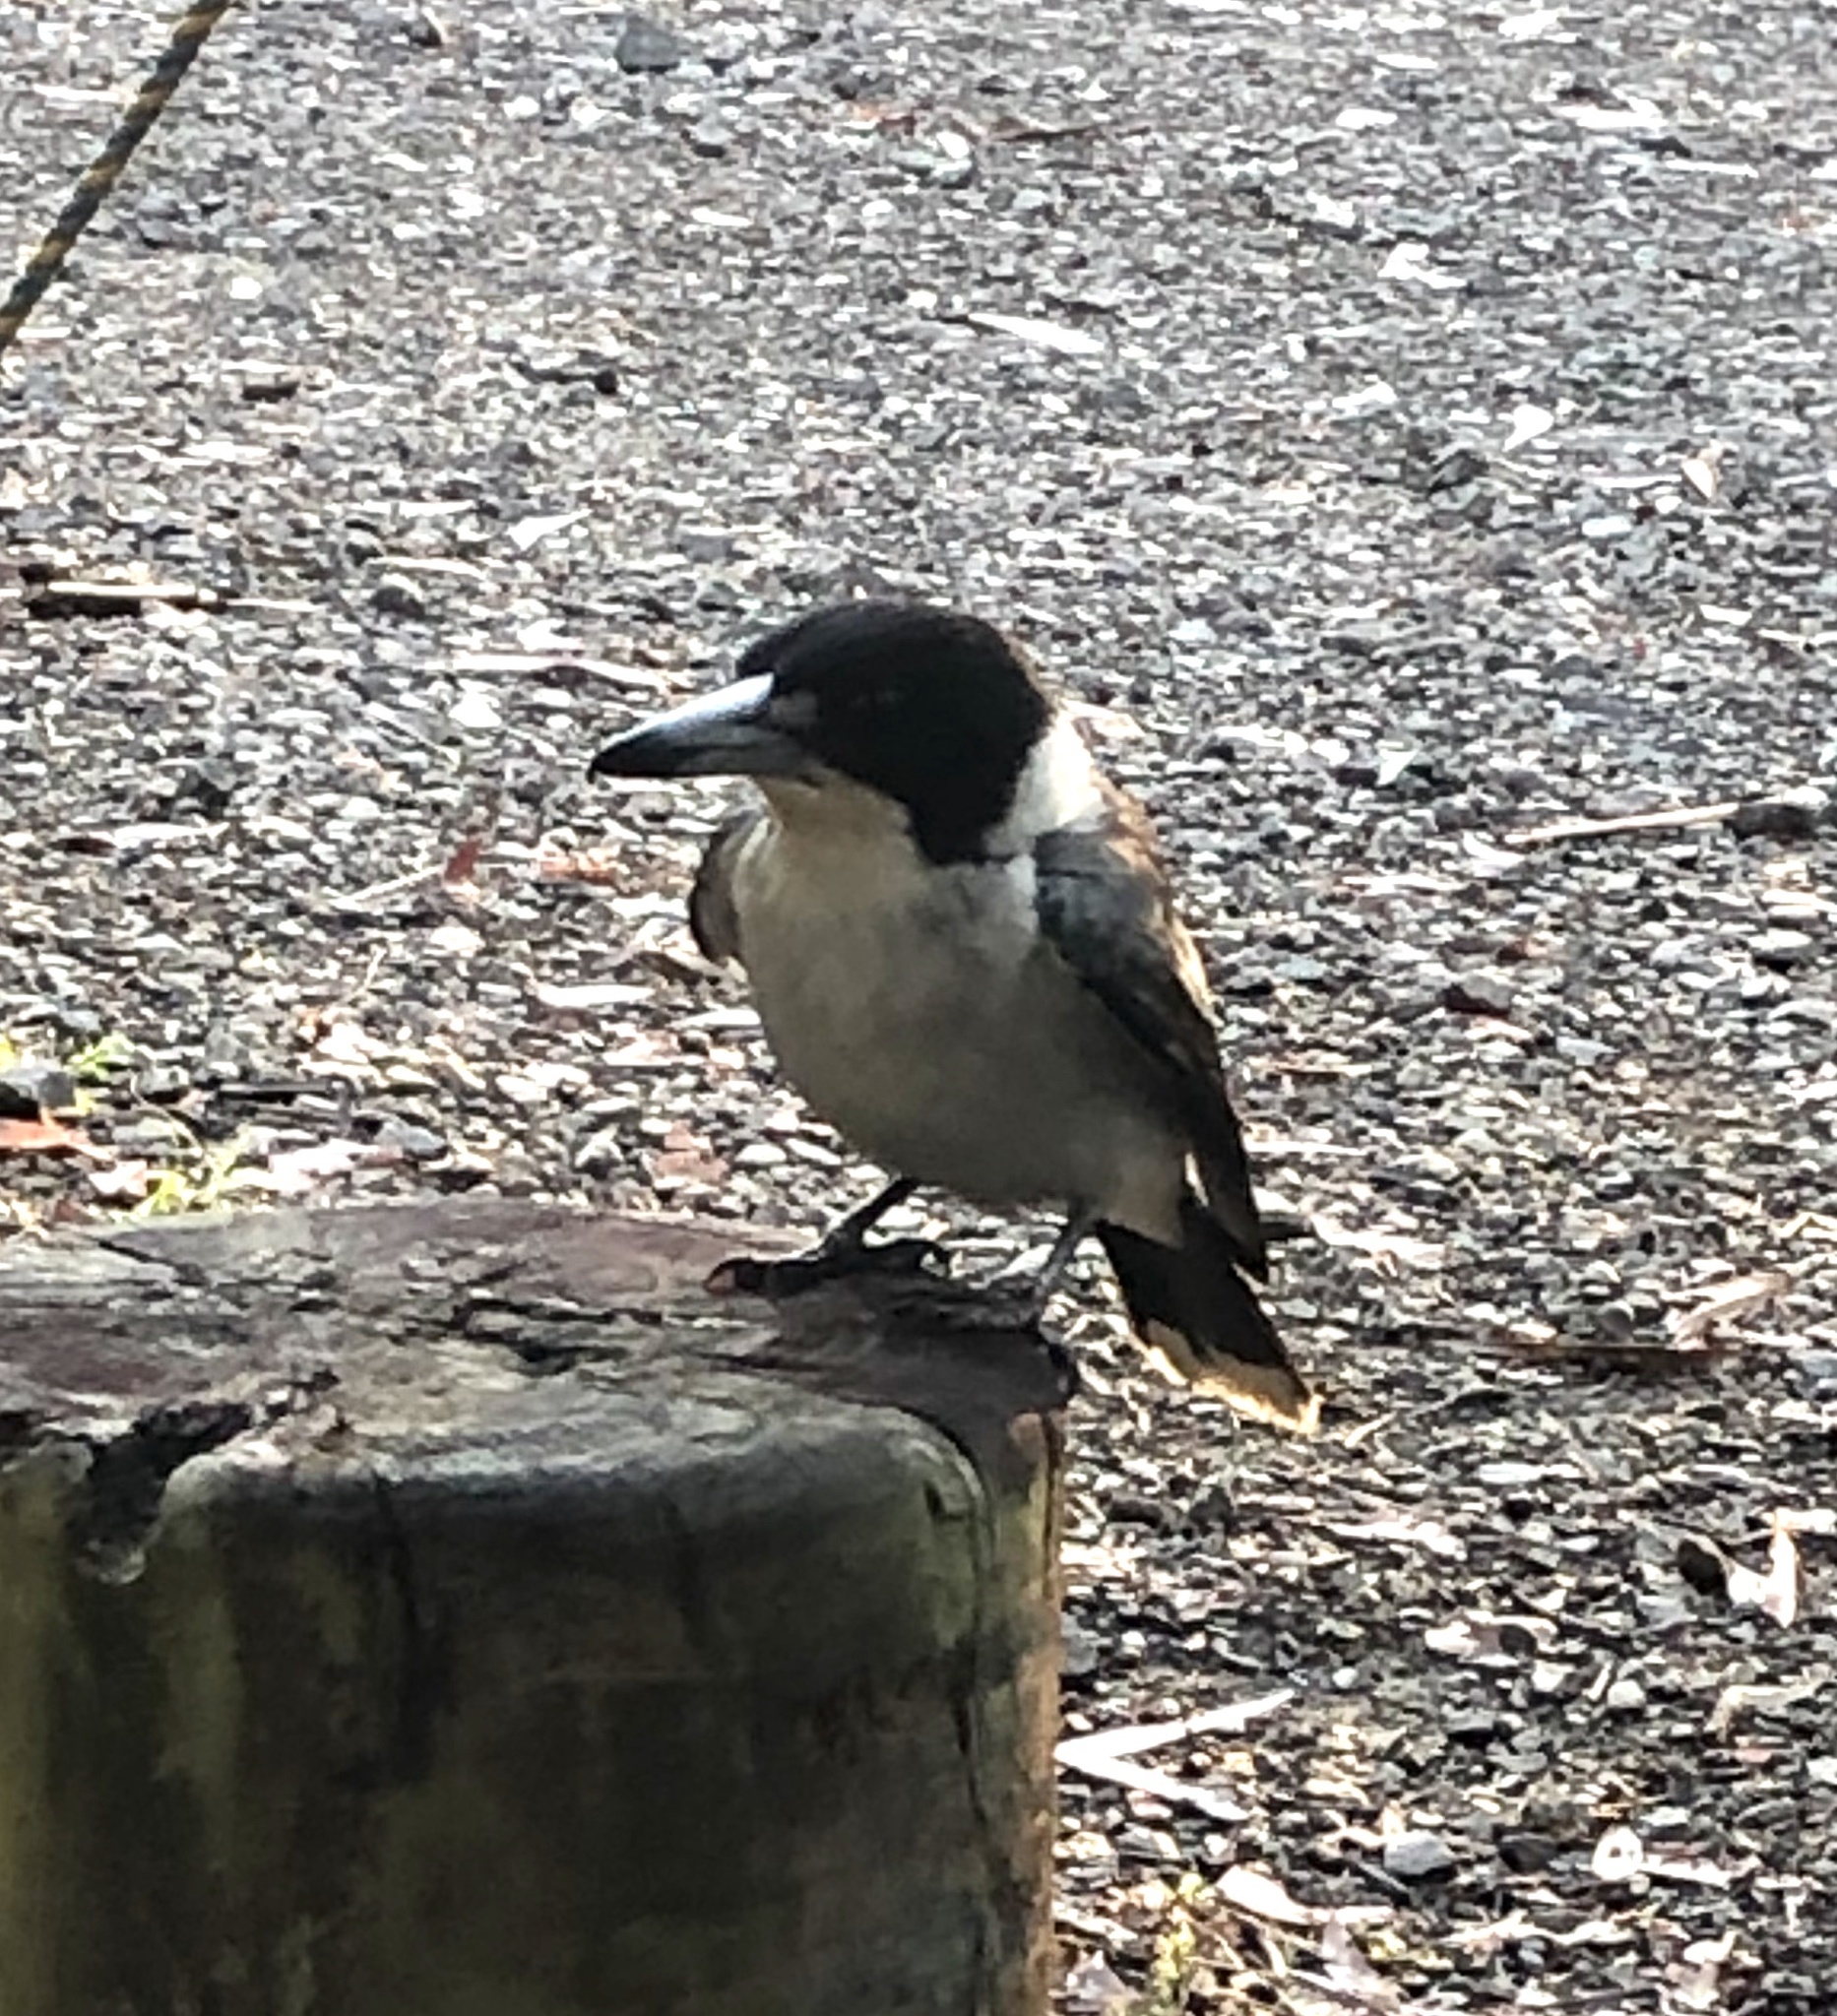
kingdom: Animalia
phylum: Chordata
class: Aves
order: Passeriformes
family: Cracticidae
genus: Cracticus
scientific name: Cracticus torquatus
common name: Grey butcherbird
